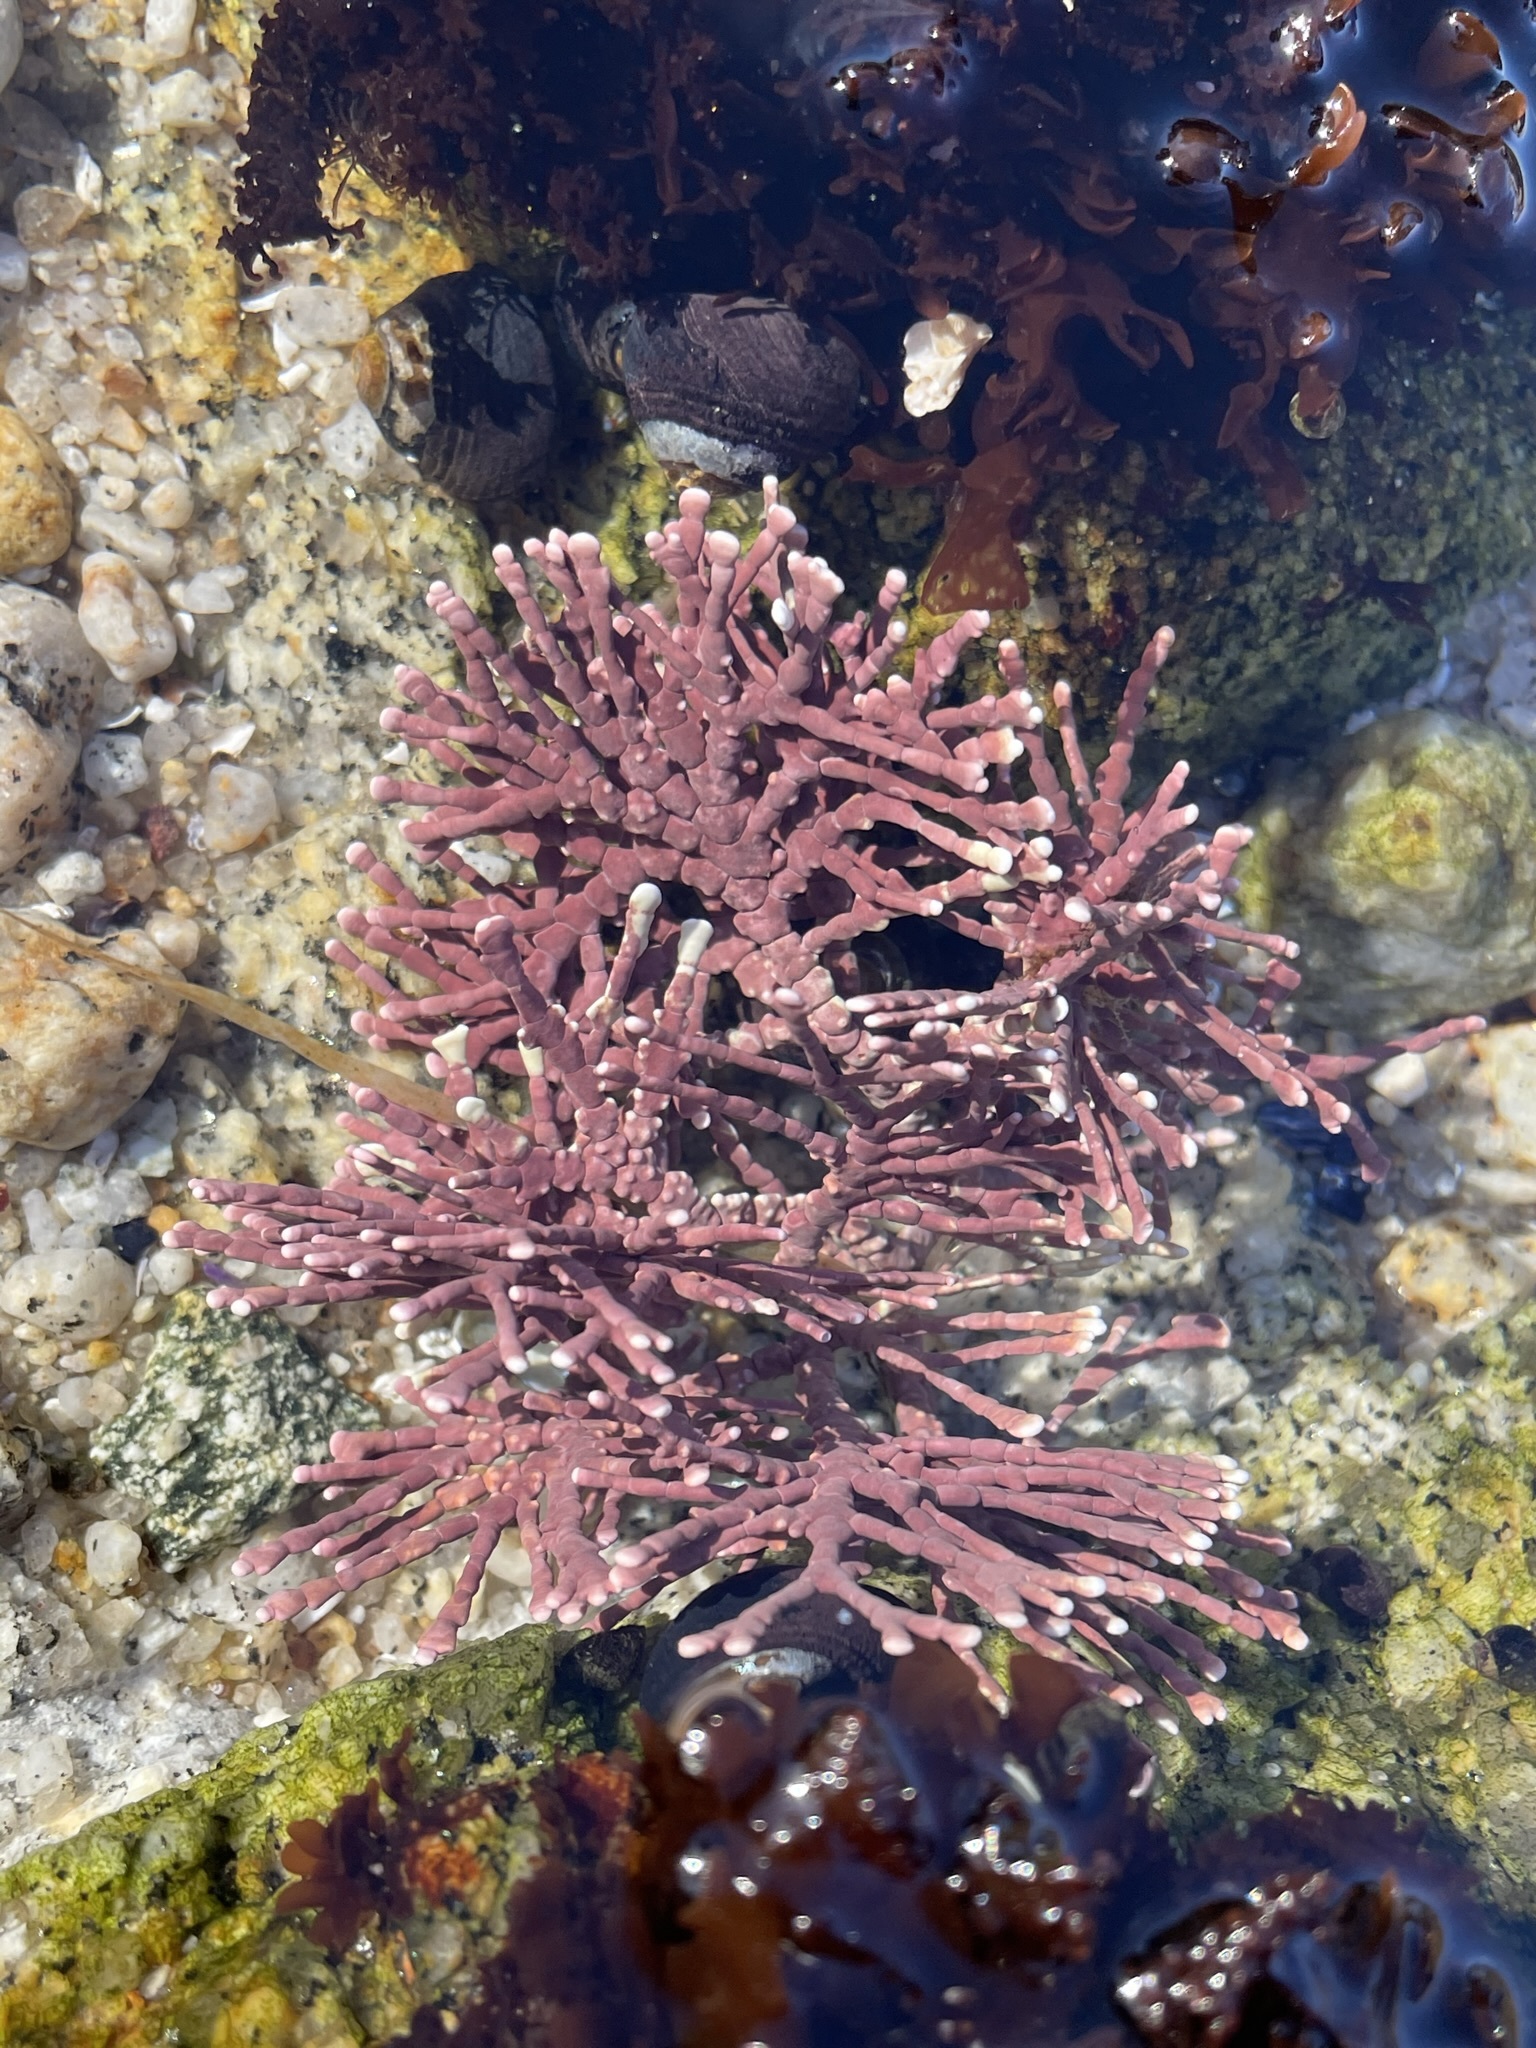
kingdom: Plantae
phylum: Rhodophyta
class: Florideophyceae
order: Corallinales
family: Corallinaceae
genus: Calliarthron
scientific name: Calliarthron tuberculosum
